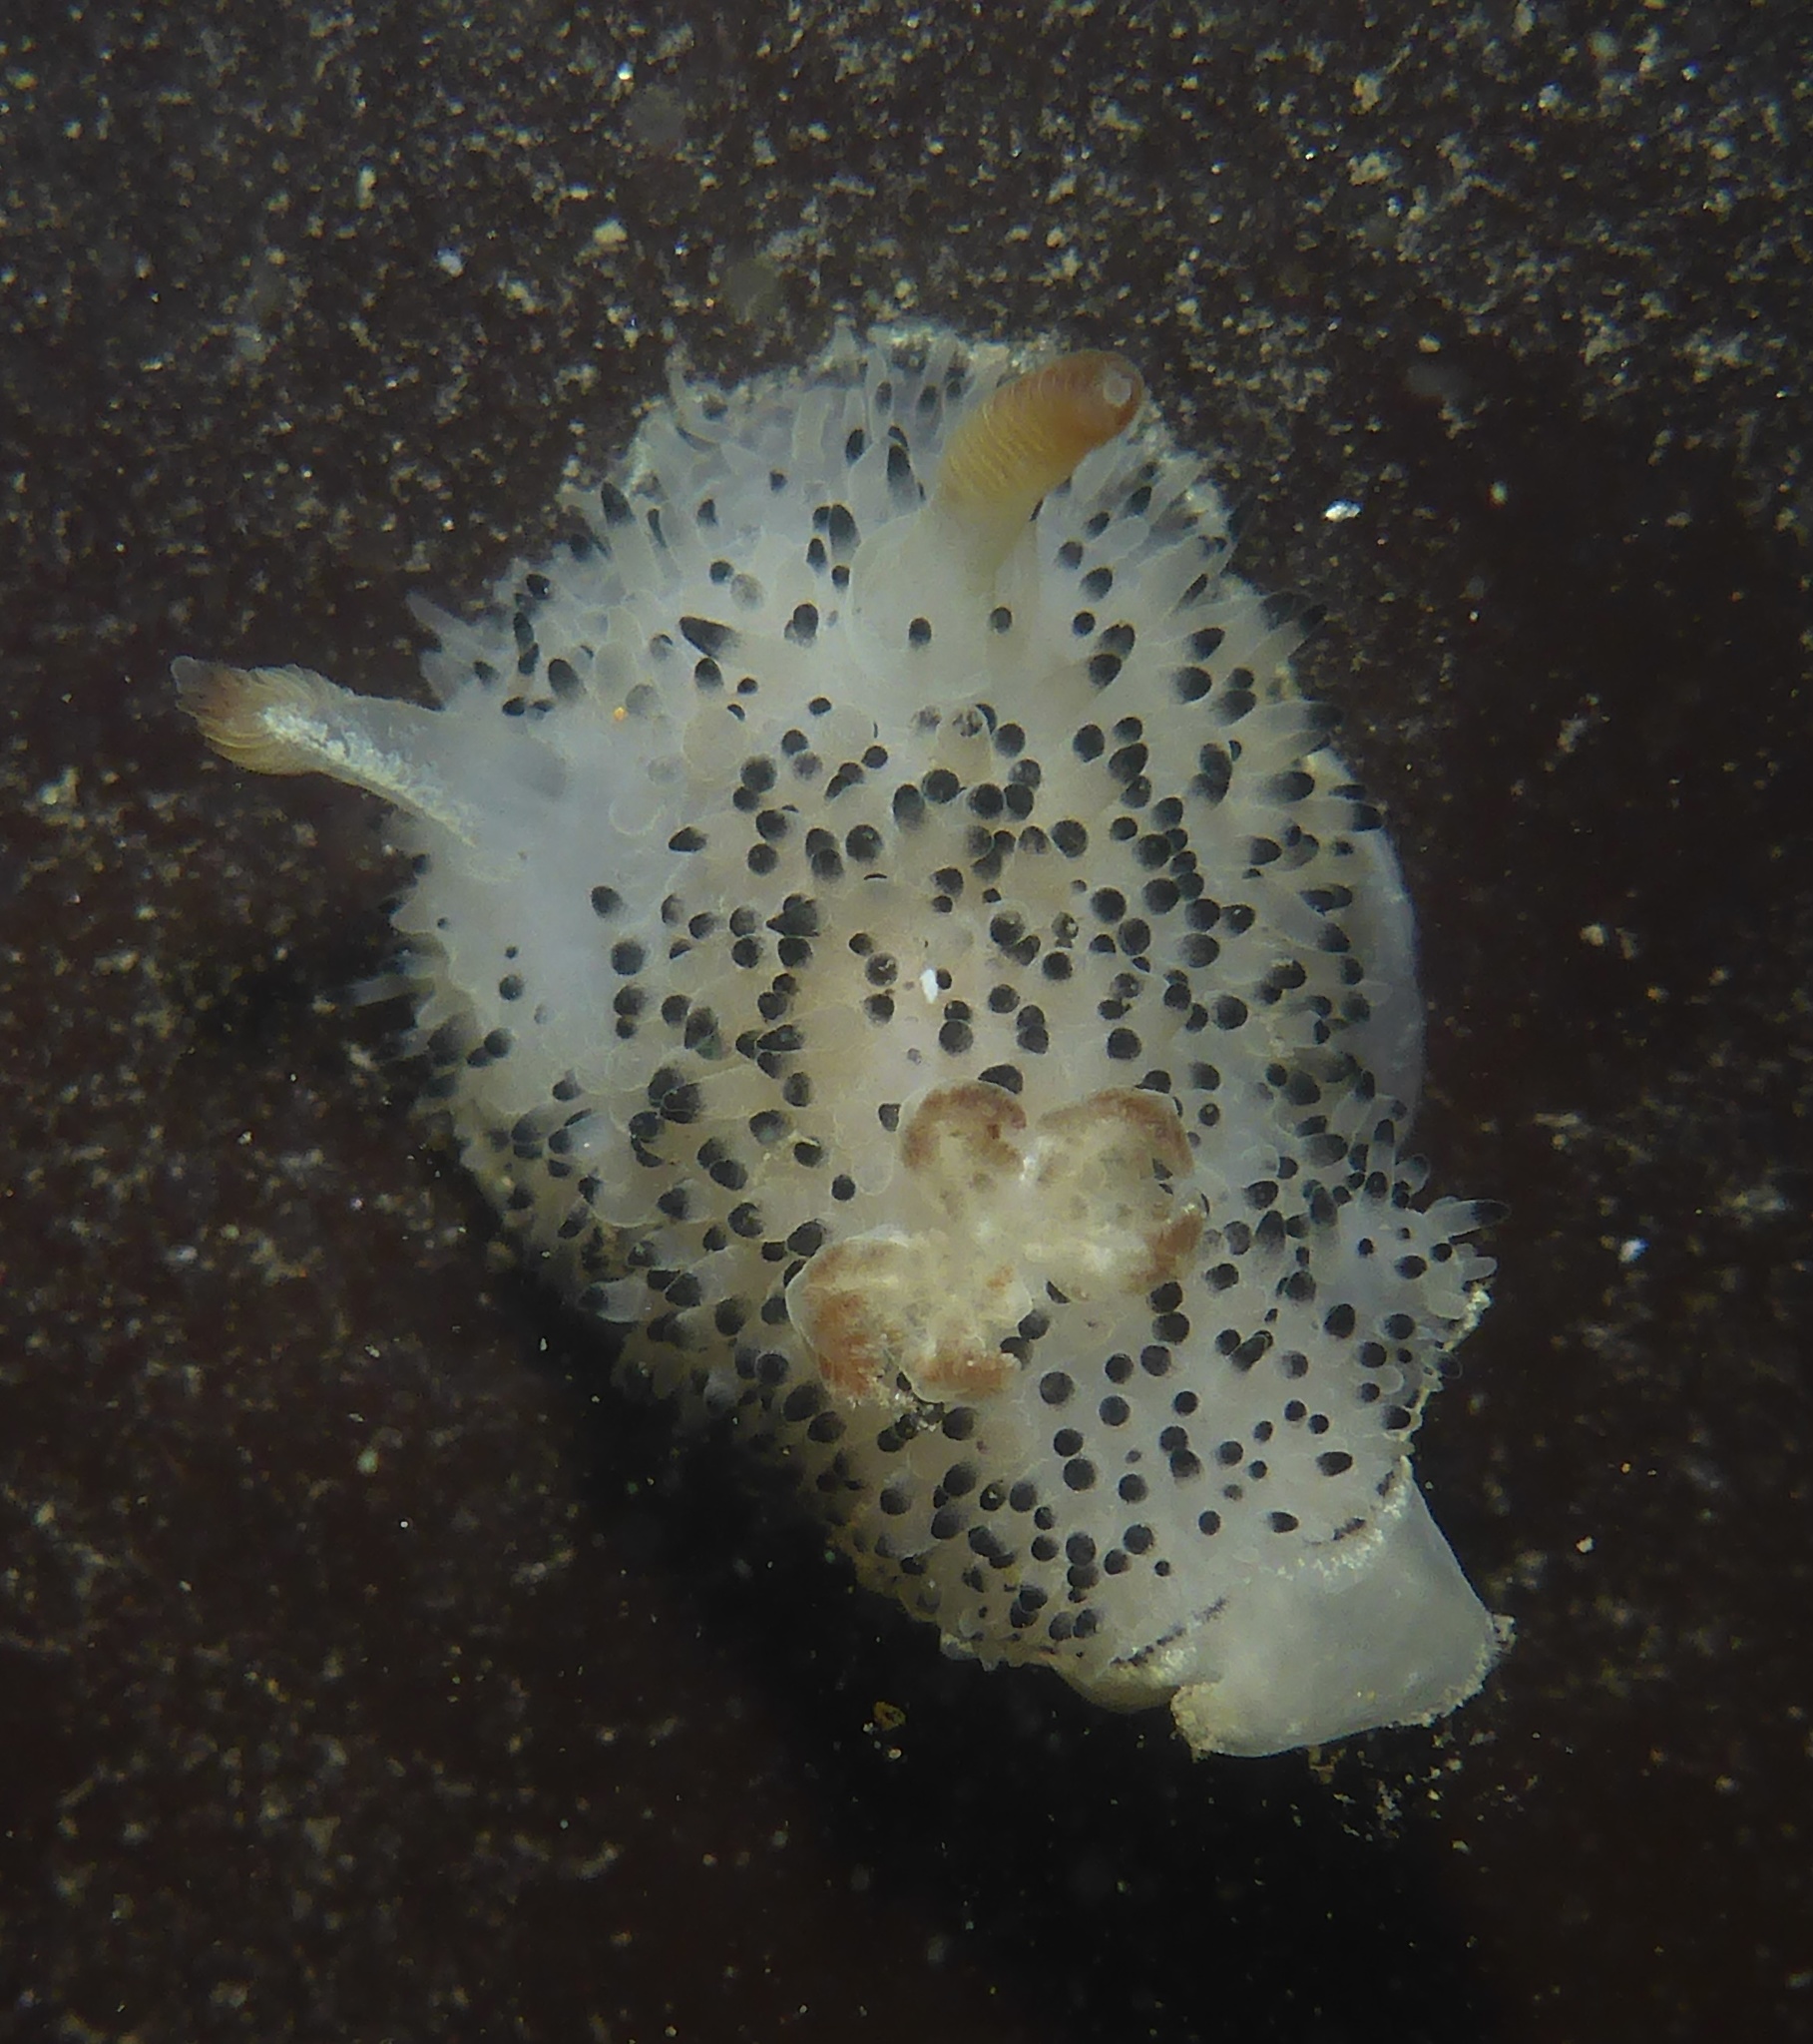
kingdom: Animalia
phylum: Mollusca
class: Gastropoda
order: Nudibranchia
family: Onchidorididae
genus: Acanthodoris
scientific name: Acanthodoris rhodoceras
